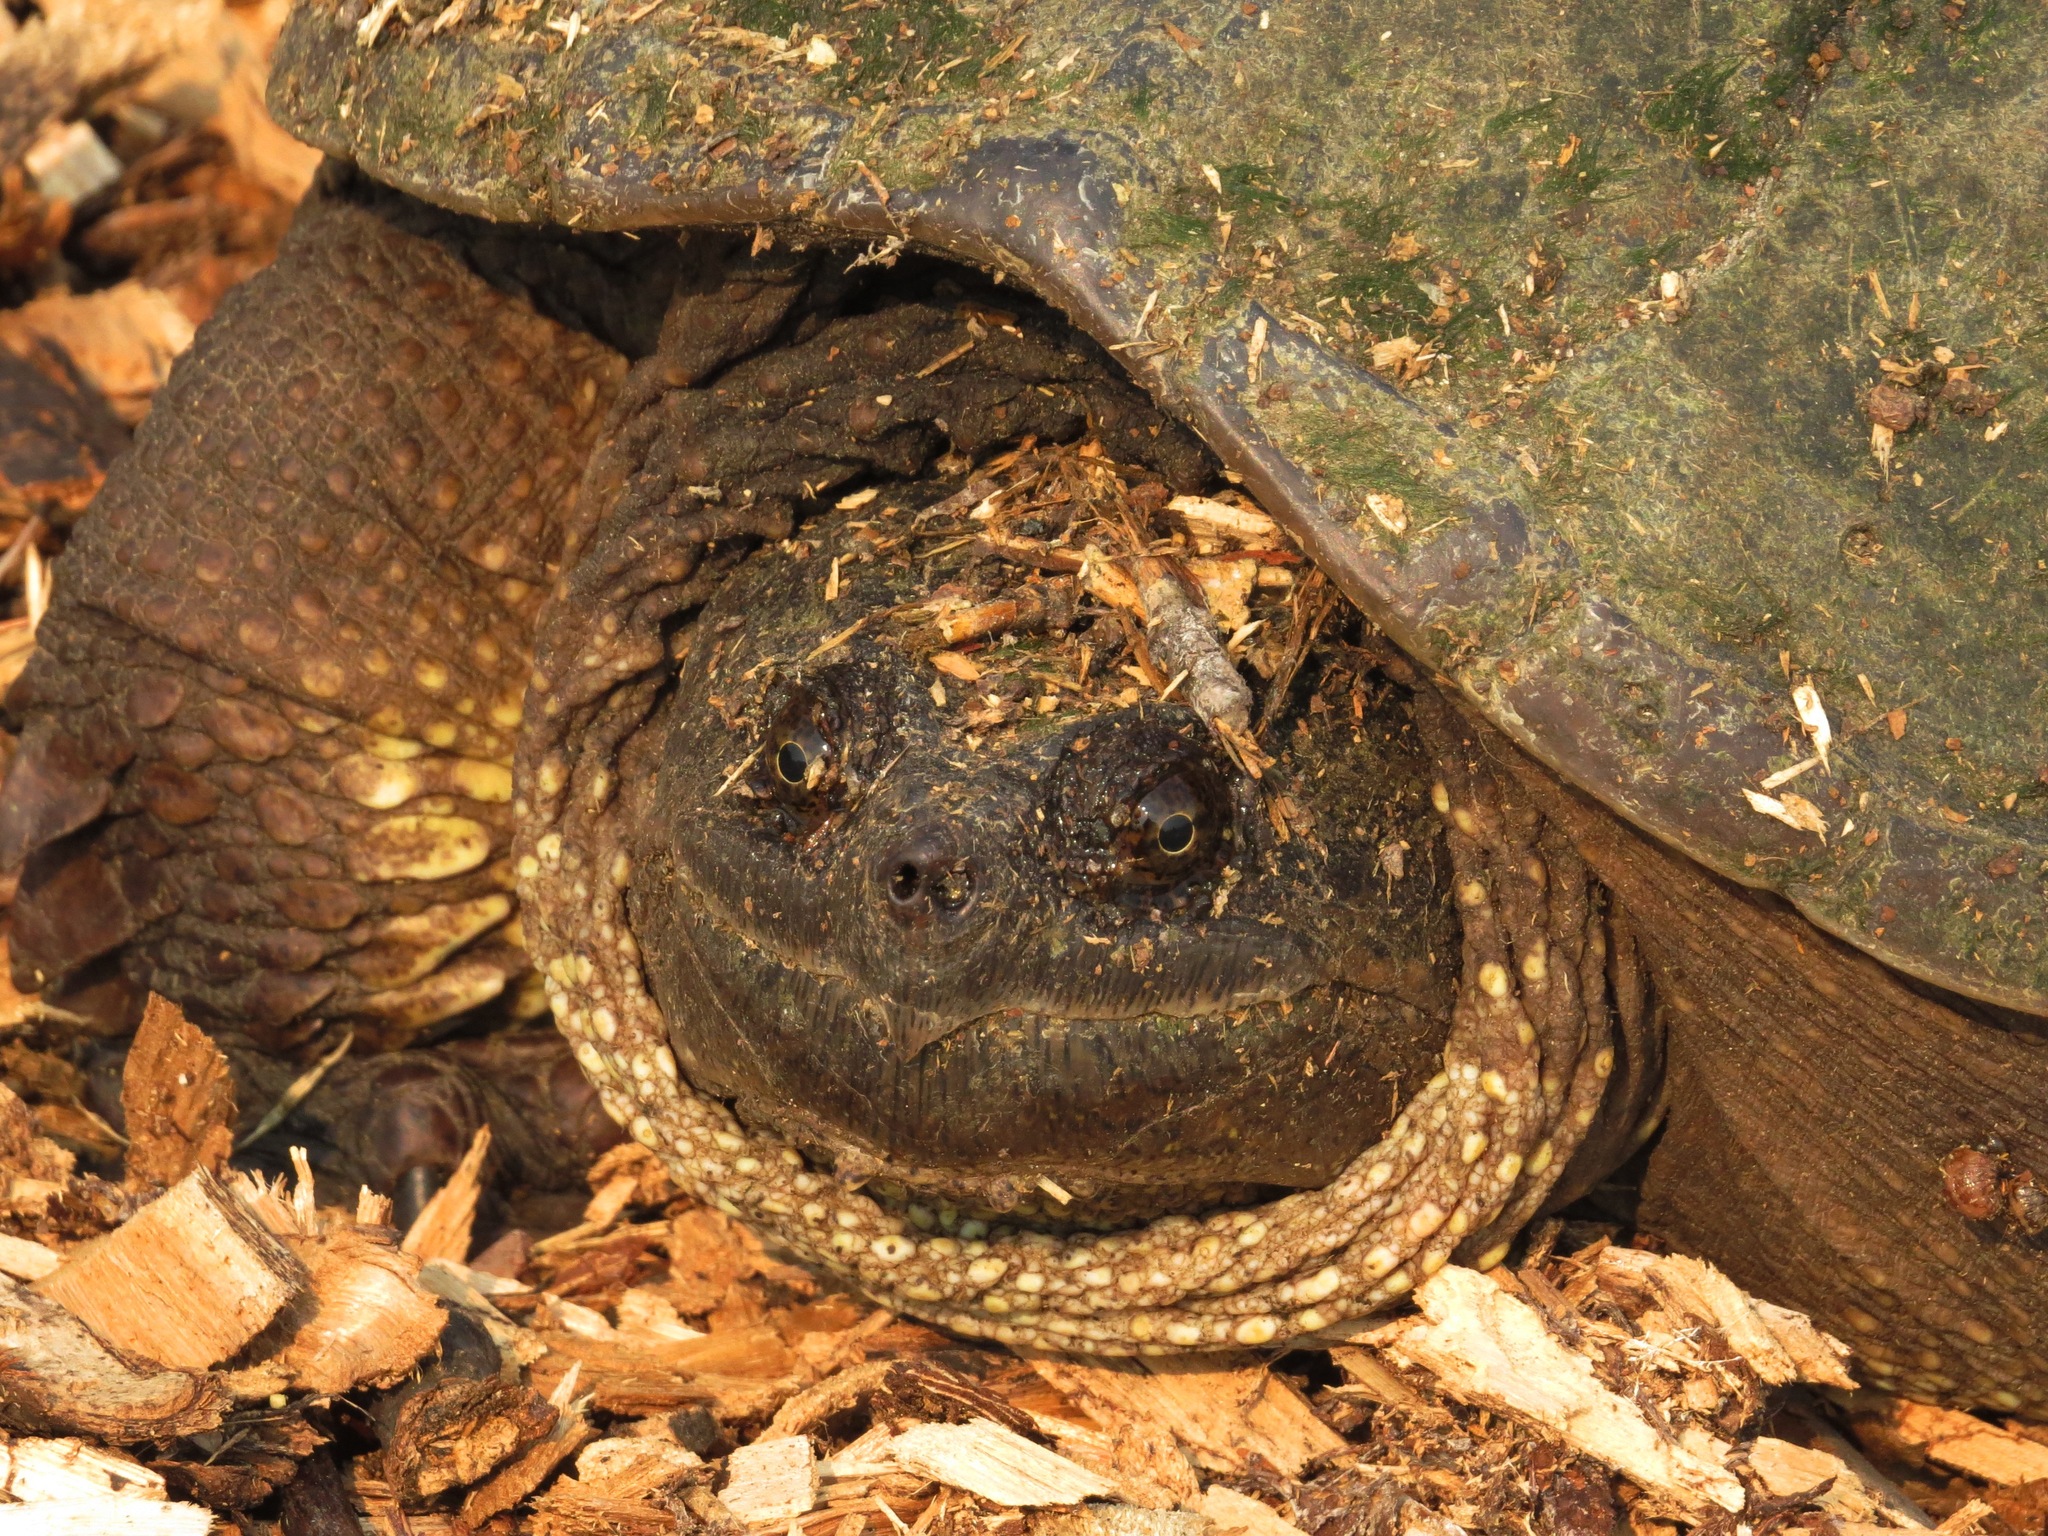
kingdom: Animalia
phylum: Chordata
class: Testudines
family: Chelydridae
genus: Chelydra
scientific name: Chelydra serpentina
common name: Common snapping turtle
